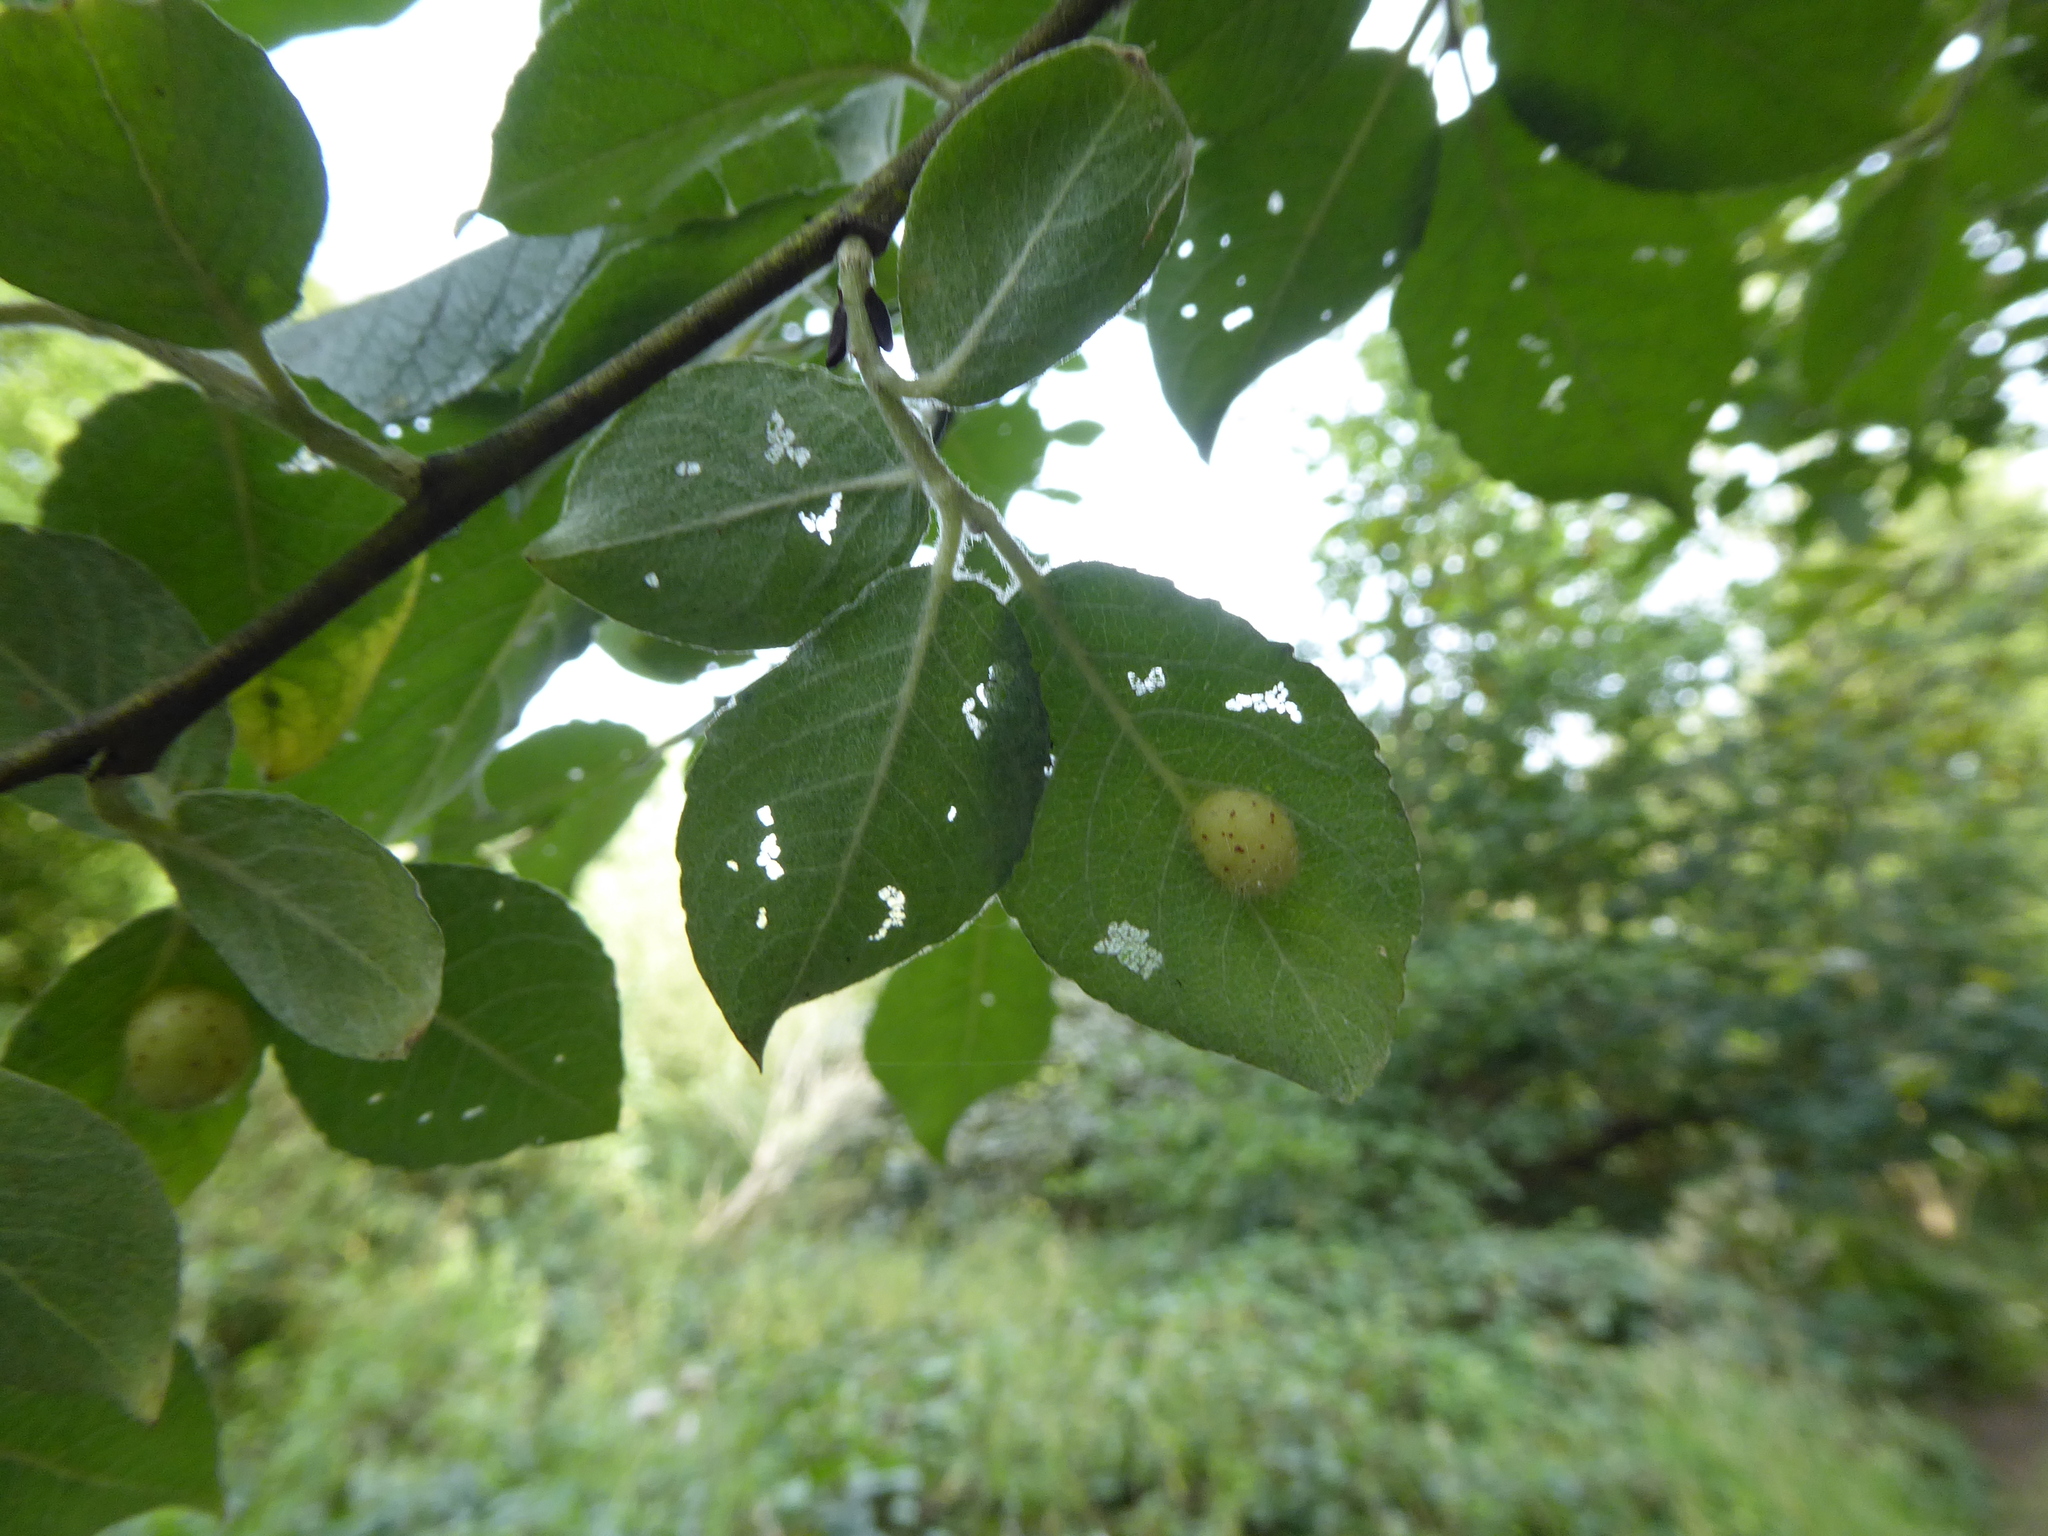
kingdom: Animalia
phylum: Arthropoda
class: Insecta
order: Hymenoptera
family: Tenthredinidae
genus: Pontania
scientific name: Pontania pedunculi
